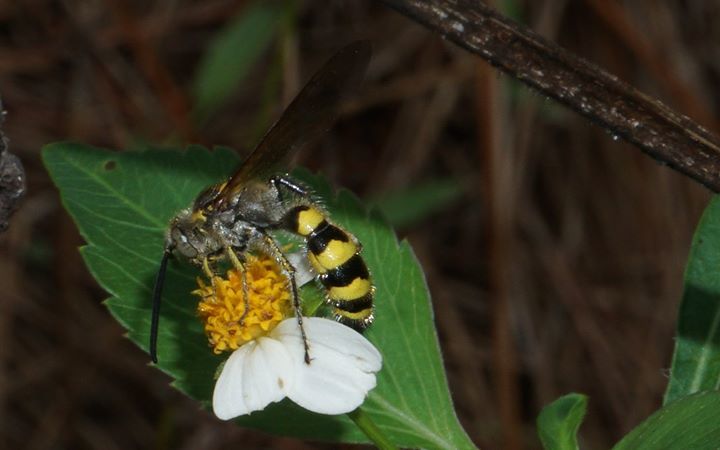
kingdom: Animalia
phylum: Arthropoda
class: Insecta
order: Hymenoptera
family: Scoliidae
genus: Dielis
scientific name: Dielis
